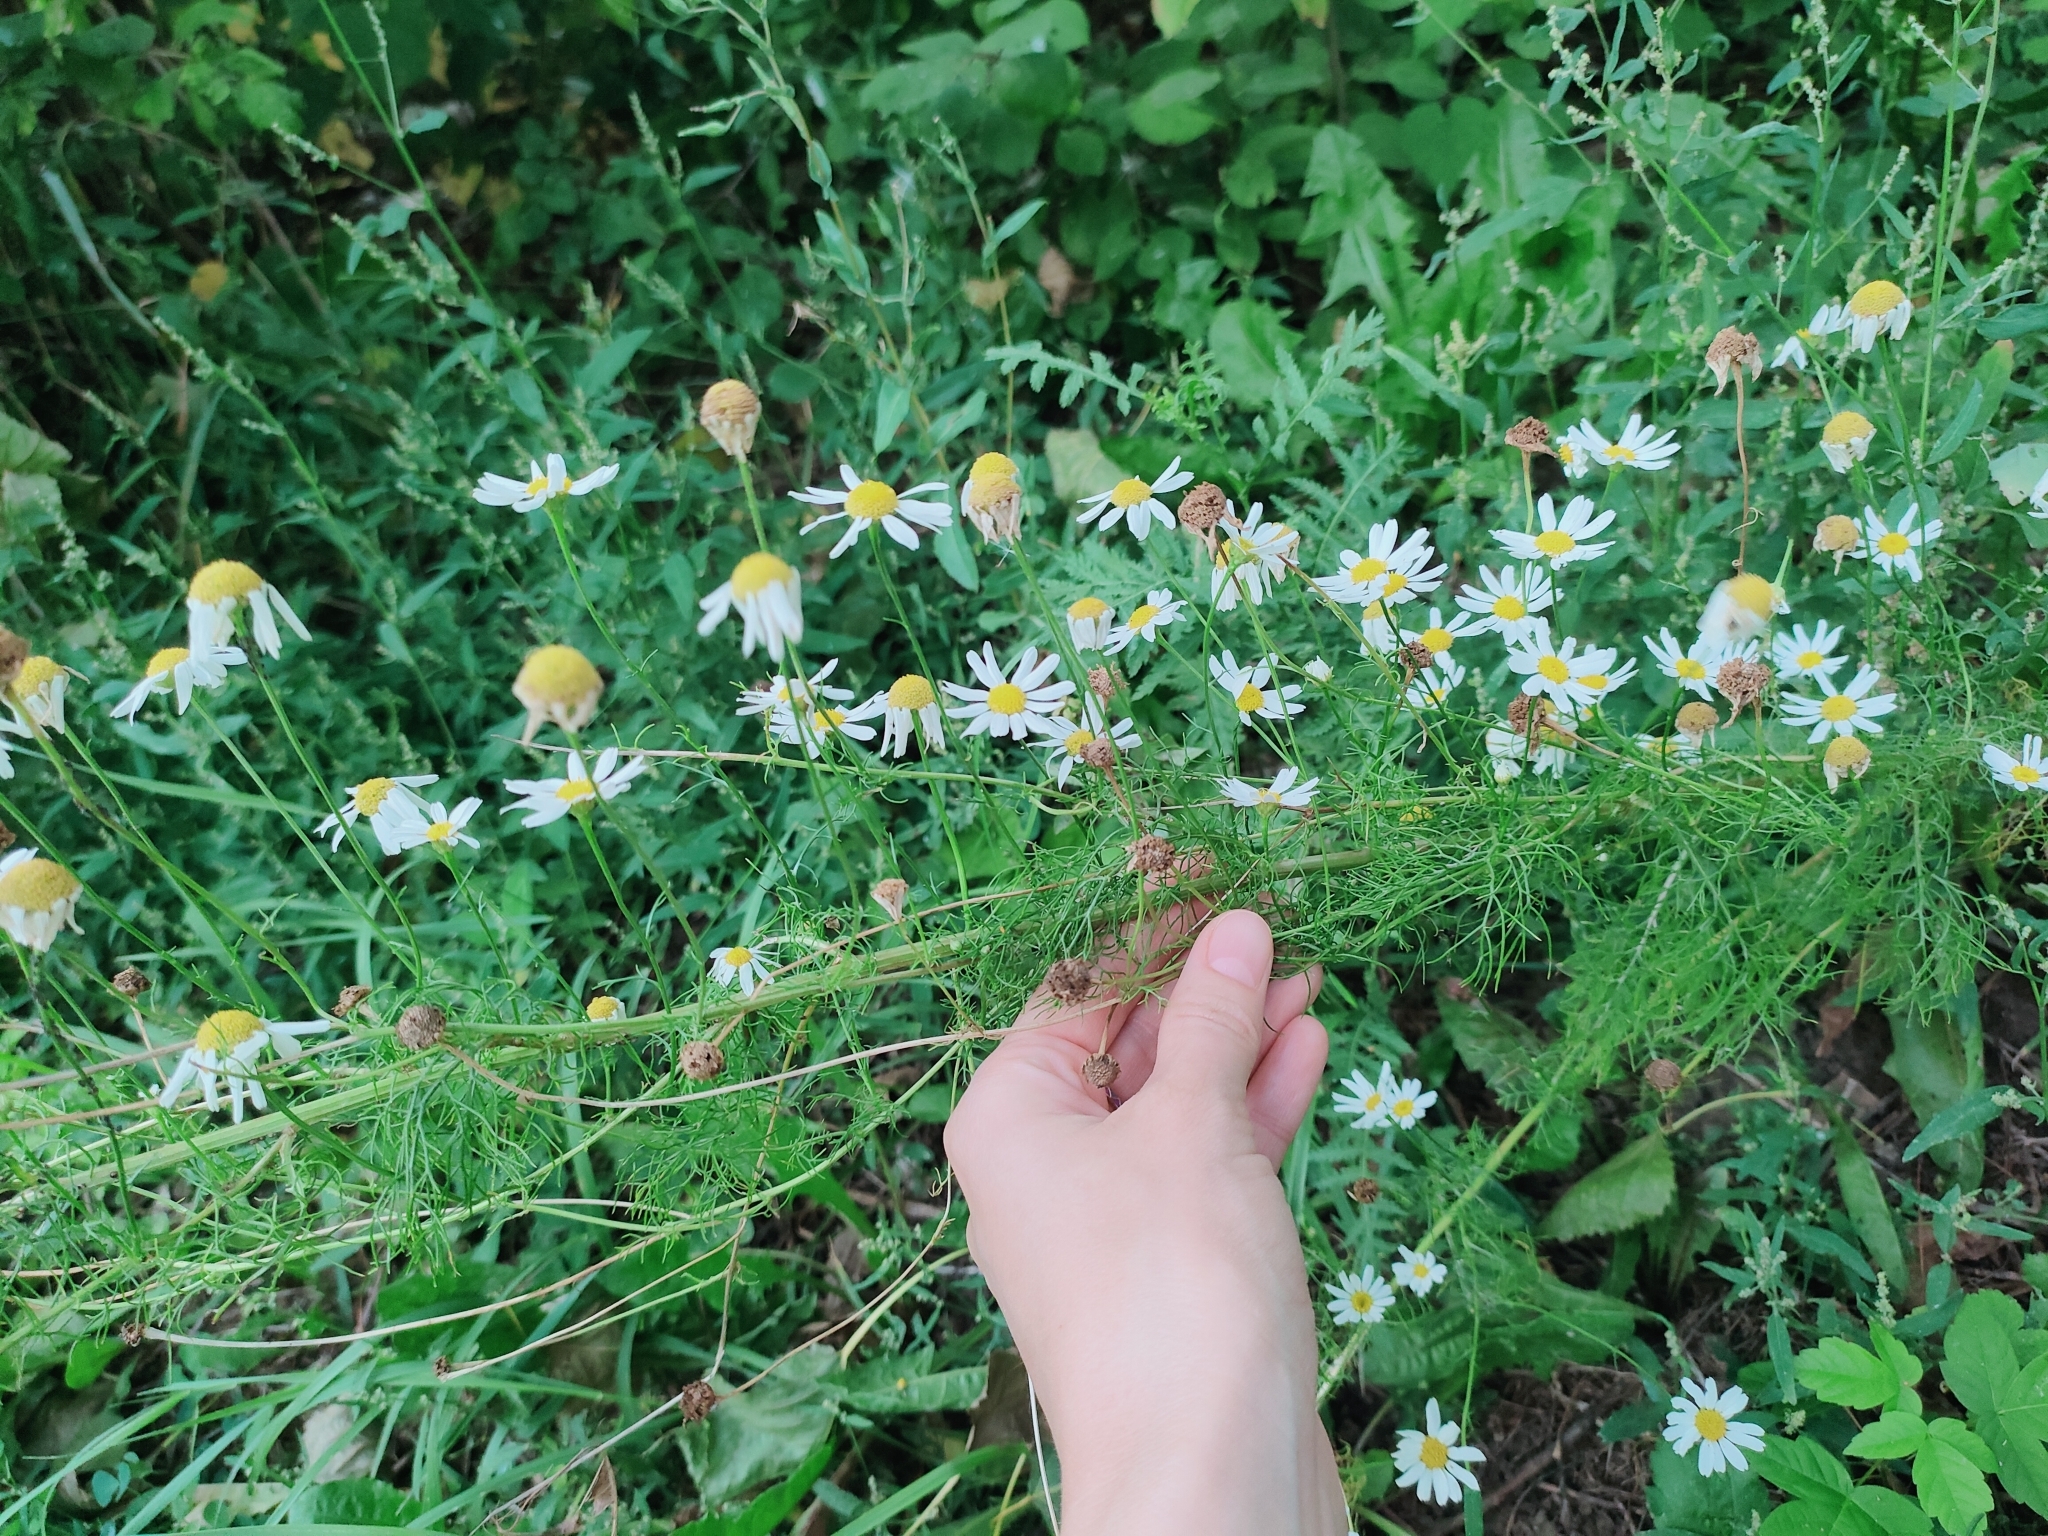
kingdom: Plantae
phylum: Tracheophyta
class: Magnoliopsida
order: Asterales
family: Asteraceae
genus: Tripleurospermum
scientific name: Tripleurospermum inodorum
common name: Scentless mayweed
